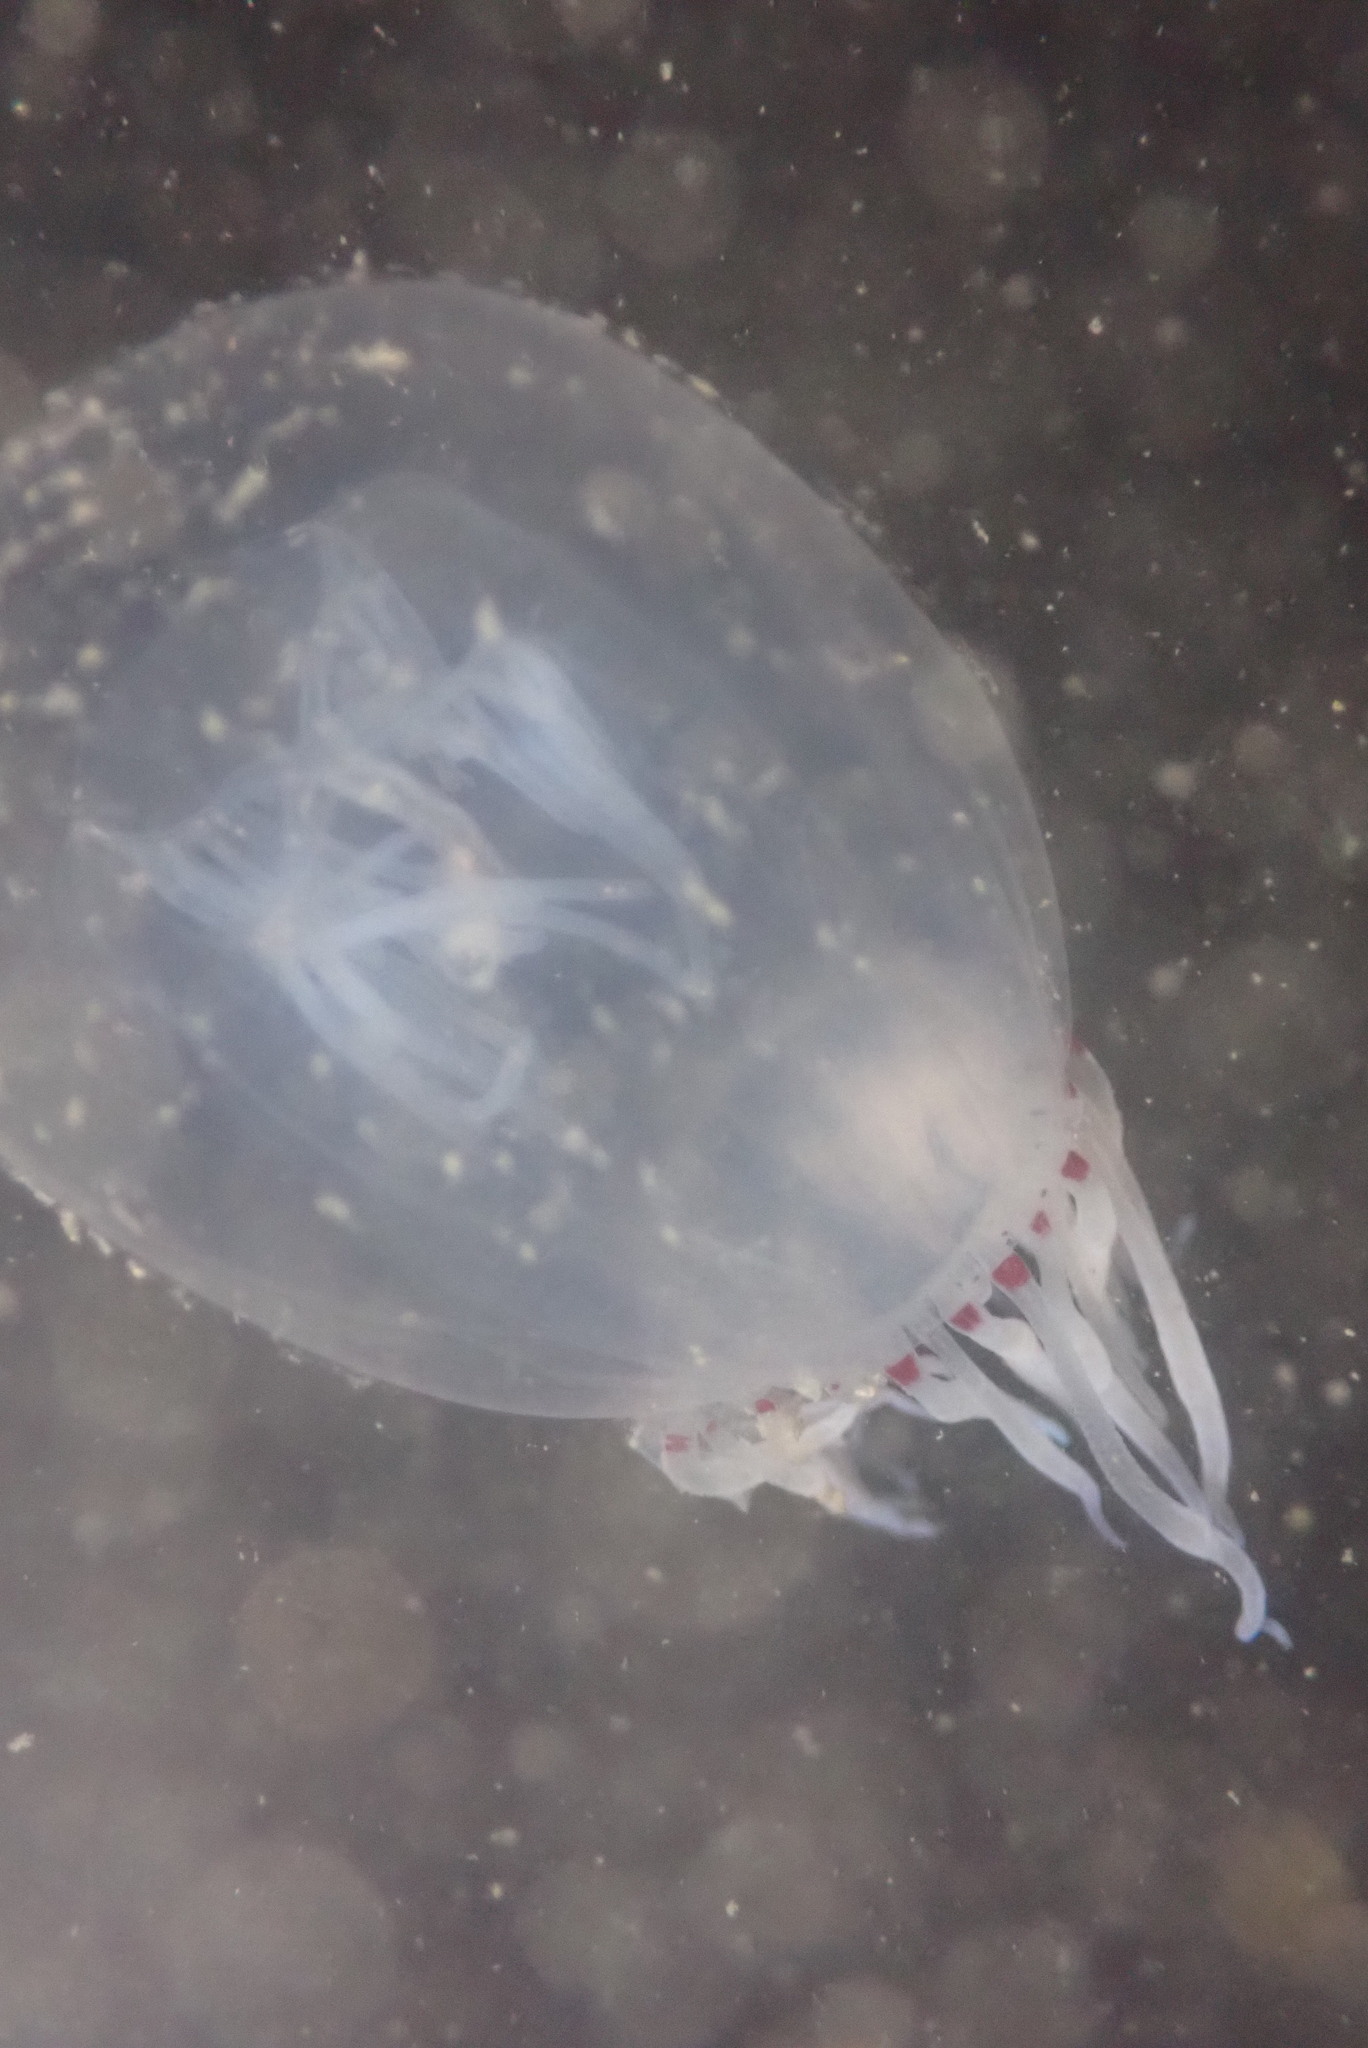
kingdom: Animalia
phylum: Cnidaria
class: Hydrozoa
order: Anthoathecata
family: Corynidae
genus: Polyorchis
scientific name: Polyorchis penicillatus
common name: Penicillate jellyfish
